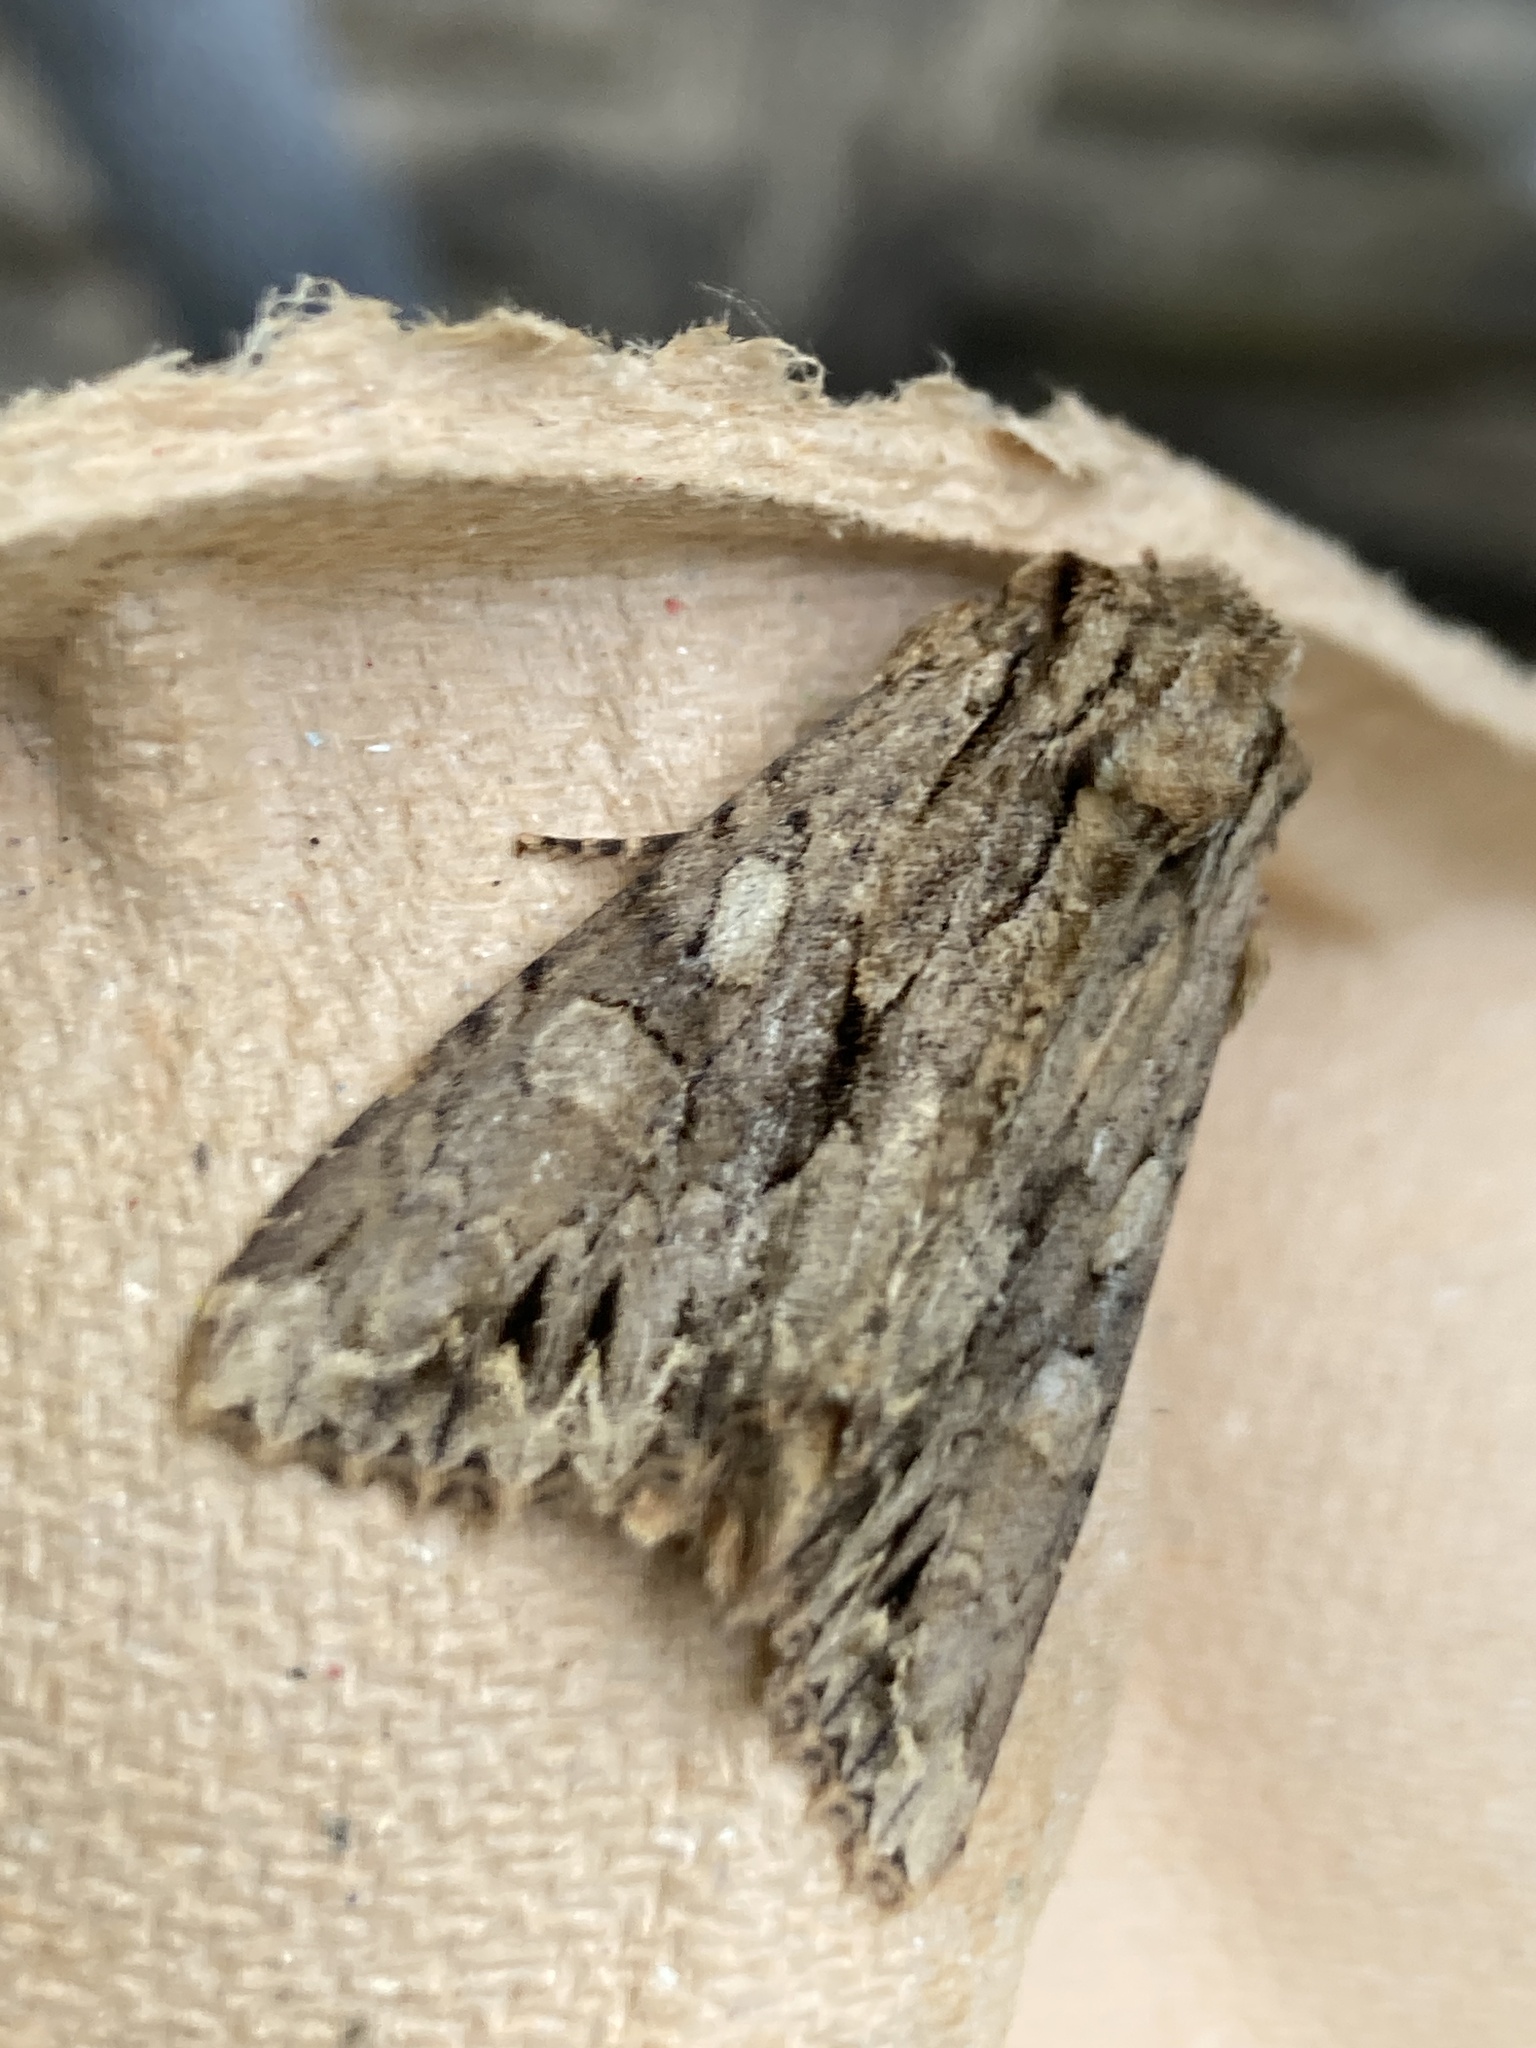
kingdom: Animalia
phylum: Arthropoda
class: Insecta
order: Lepidoptera
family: Noctuidae
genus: Apamea
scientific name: Apamea monoglypha
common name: Dark arches
